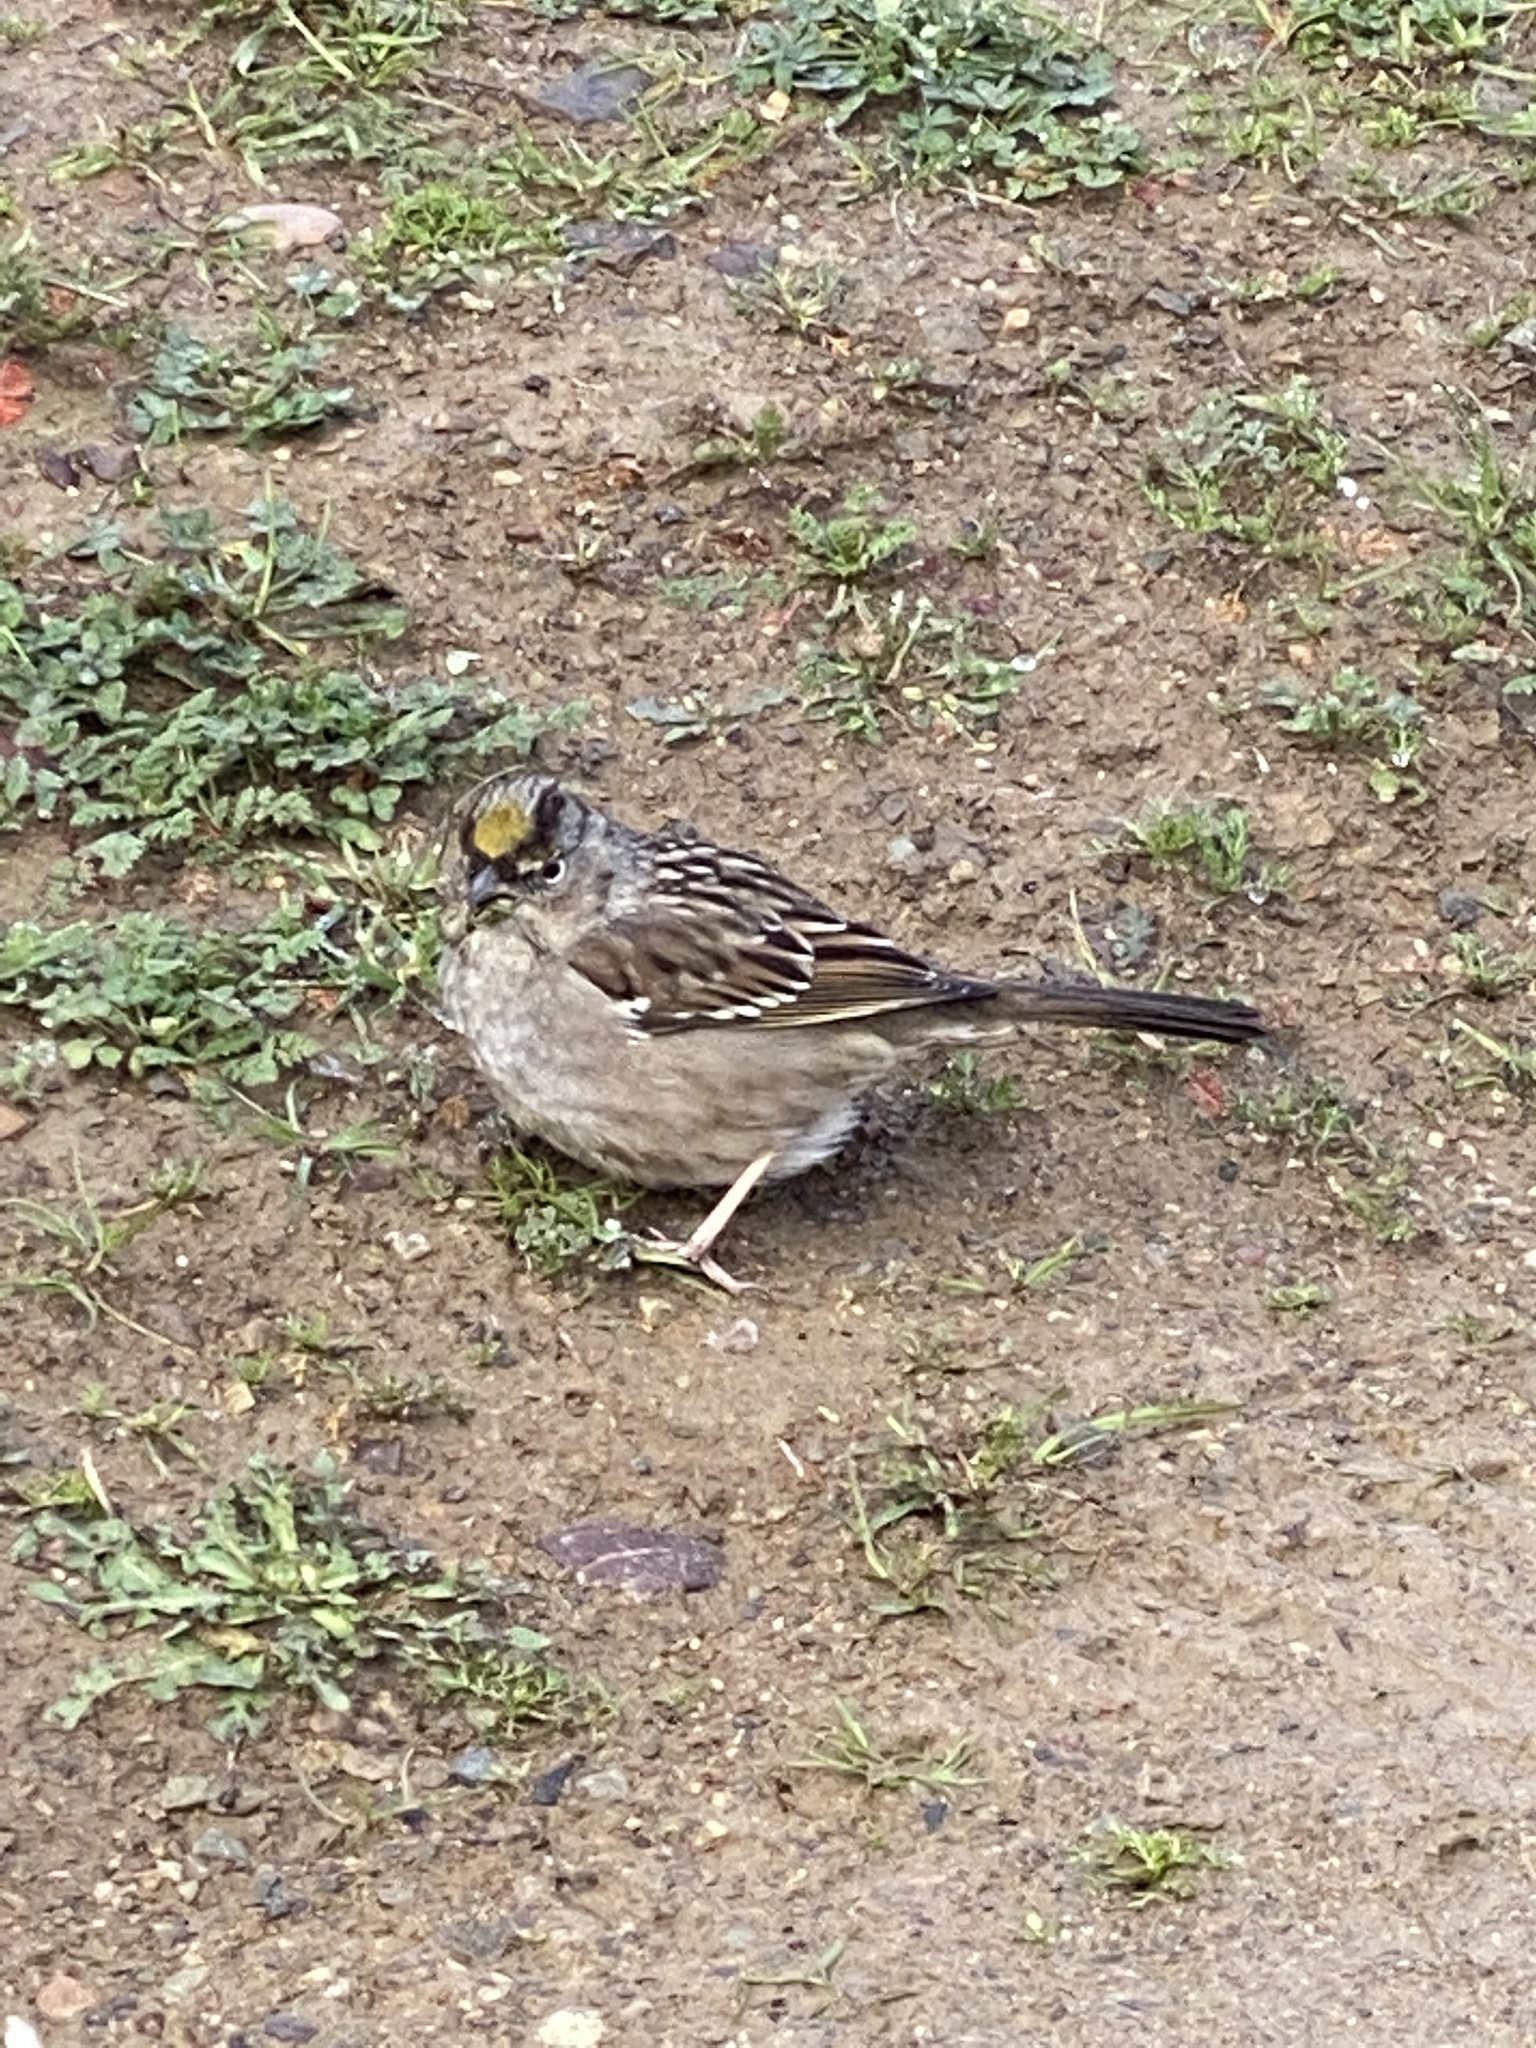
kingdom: Animalia
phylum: Chordata
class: Aves
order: Passeriformes
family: Passerellidae
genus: Zonotrichia
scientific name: Zonotrichia atricapilla
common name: Golden-crowned sparrow
